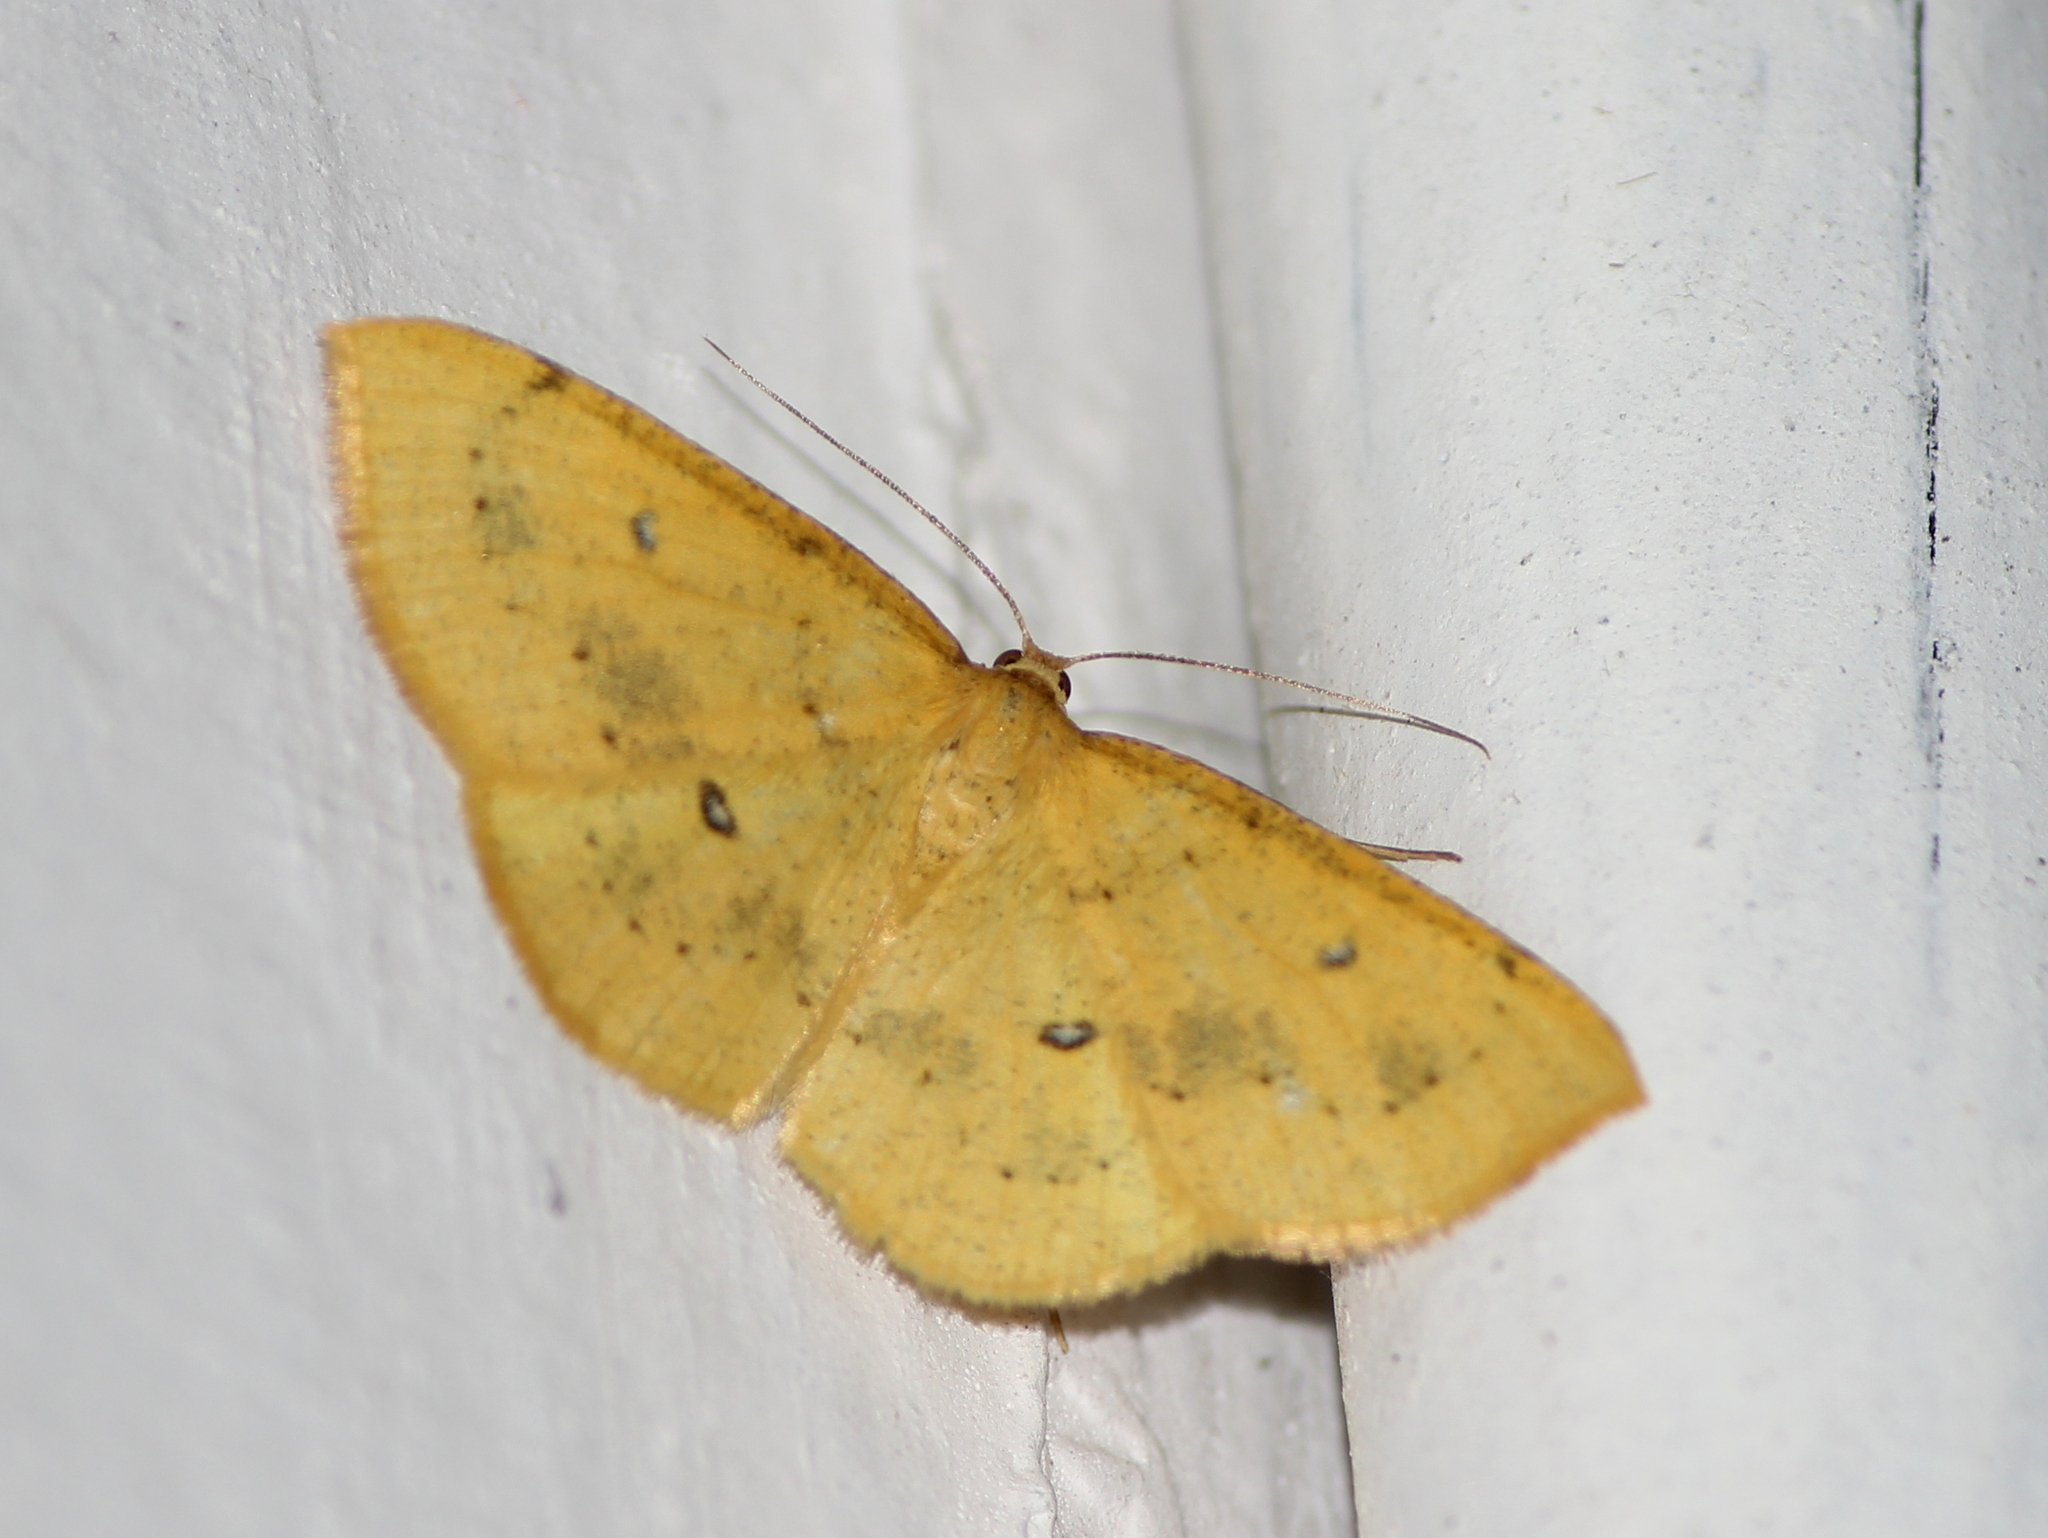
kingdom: Animalia
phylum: Arthropoda
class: Insecta
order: Lepidoptera
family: Geometridae
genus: Palaeaspilates
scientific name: Palaeaspilates Anisephyra ocularia
